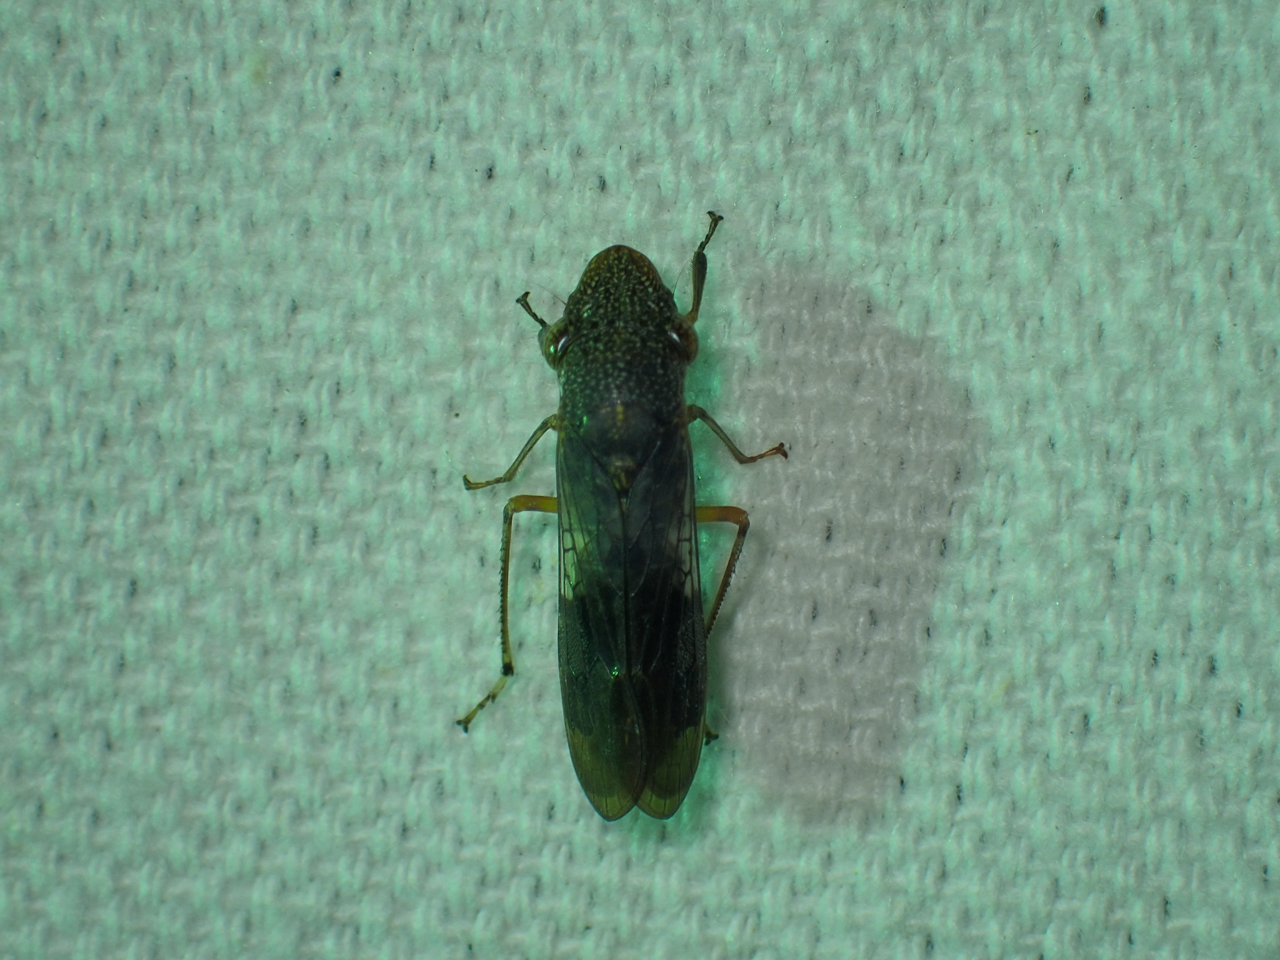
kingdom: Animalia
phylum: Arthropoda
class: Insecta
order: Hemiptera
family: Cicadellidae
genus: Homalodisca
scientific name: Homalodisca vitripennis
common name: Glassy-winged sharpshooter
